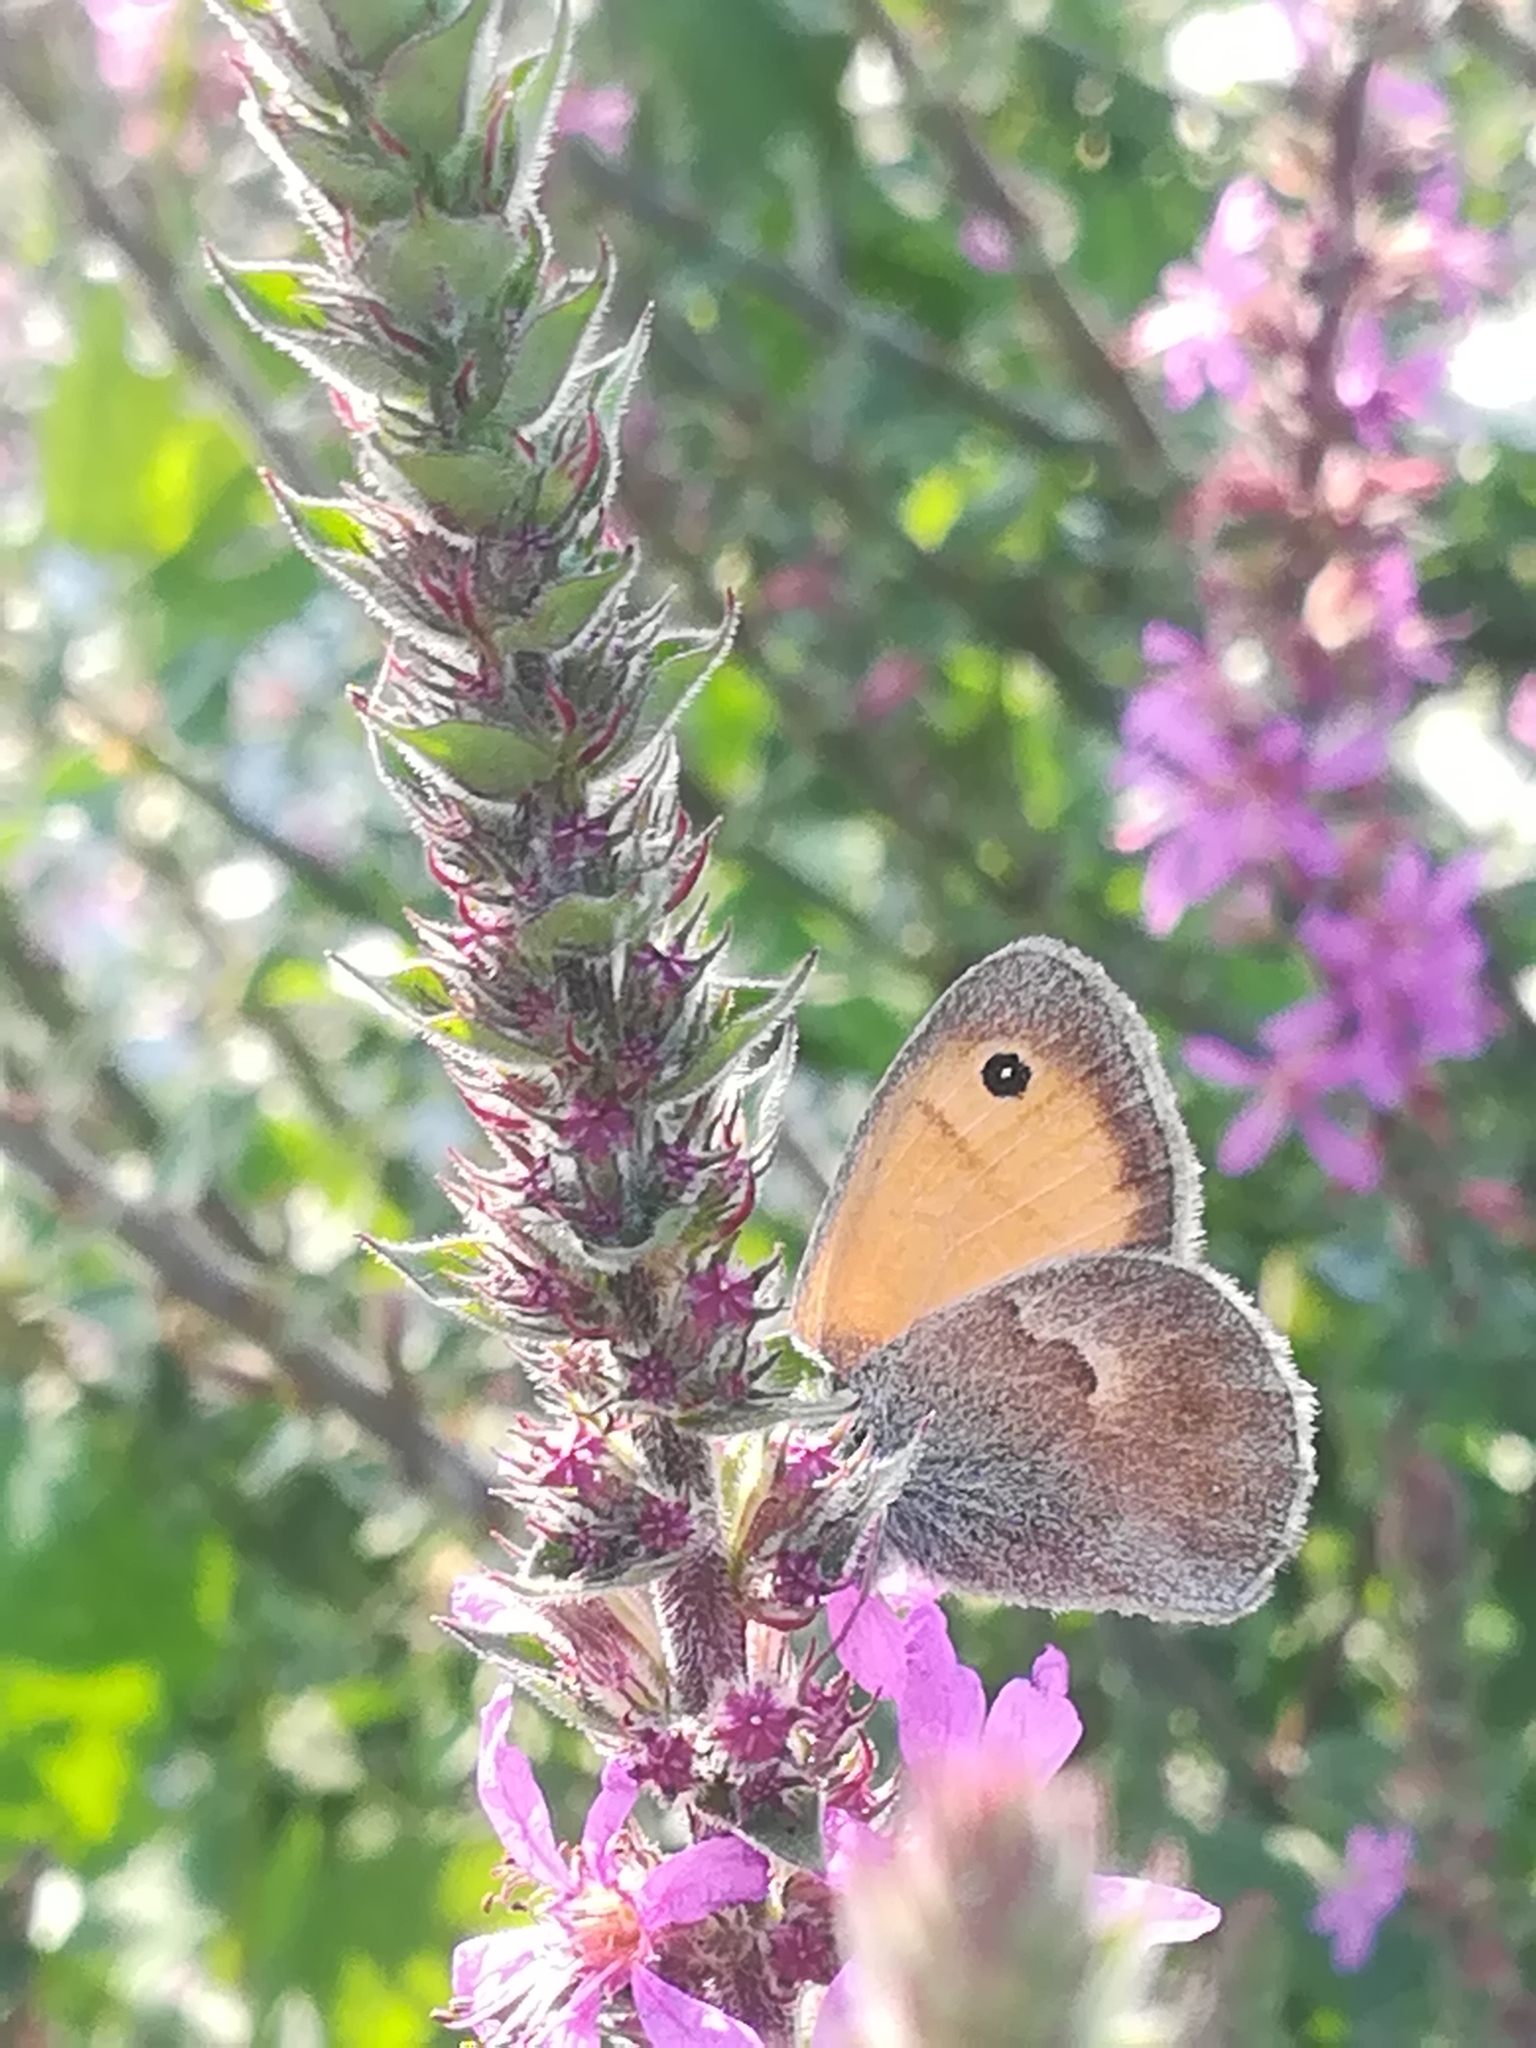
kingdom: Animalia
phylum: Arthropoda
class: Insecta
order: Lepidoptera
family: Nymphalidae
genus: Coenonympha
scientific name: Coenonympha pamphilus
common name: Small heath
